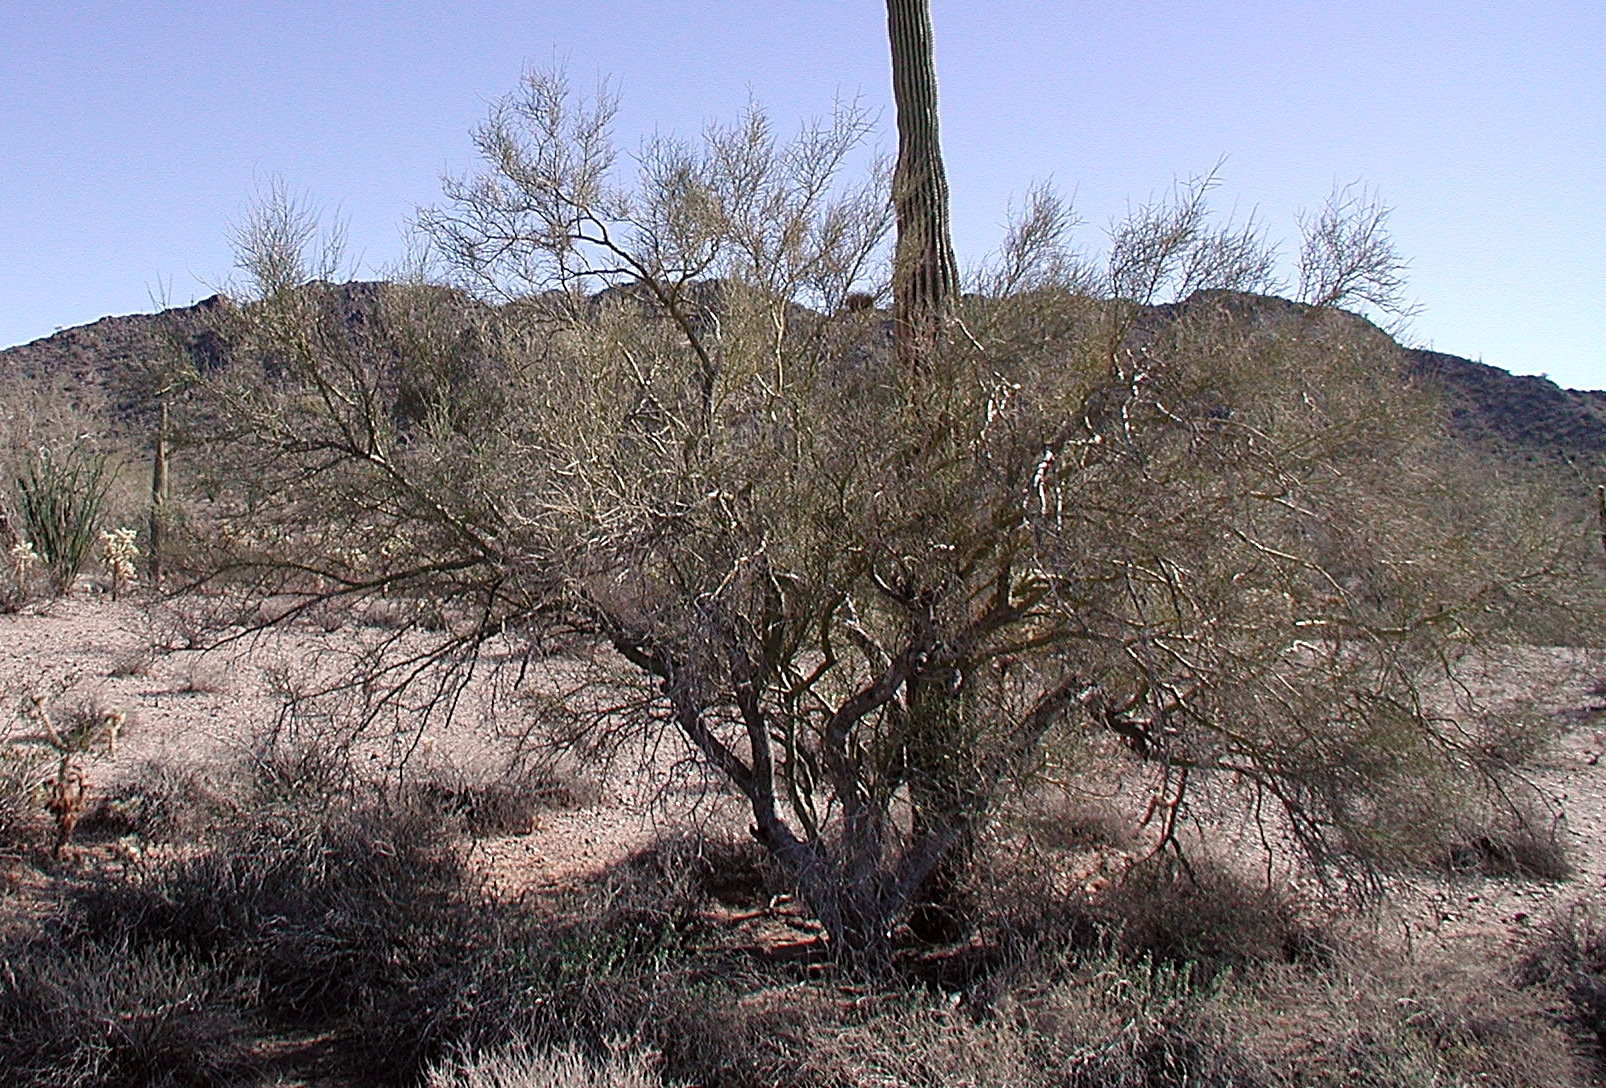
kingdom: Plantae
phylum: Tracheophyta
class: Magnoliopsida
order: Fabales
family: Fabaceae
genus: Parkinsonia
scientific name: Parkinsonia microphylla
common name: Yellow paloverde
